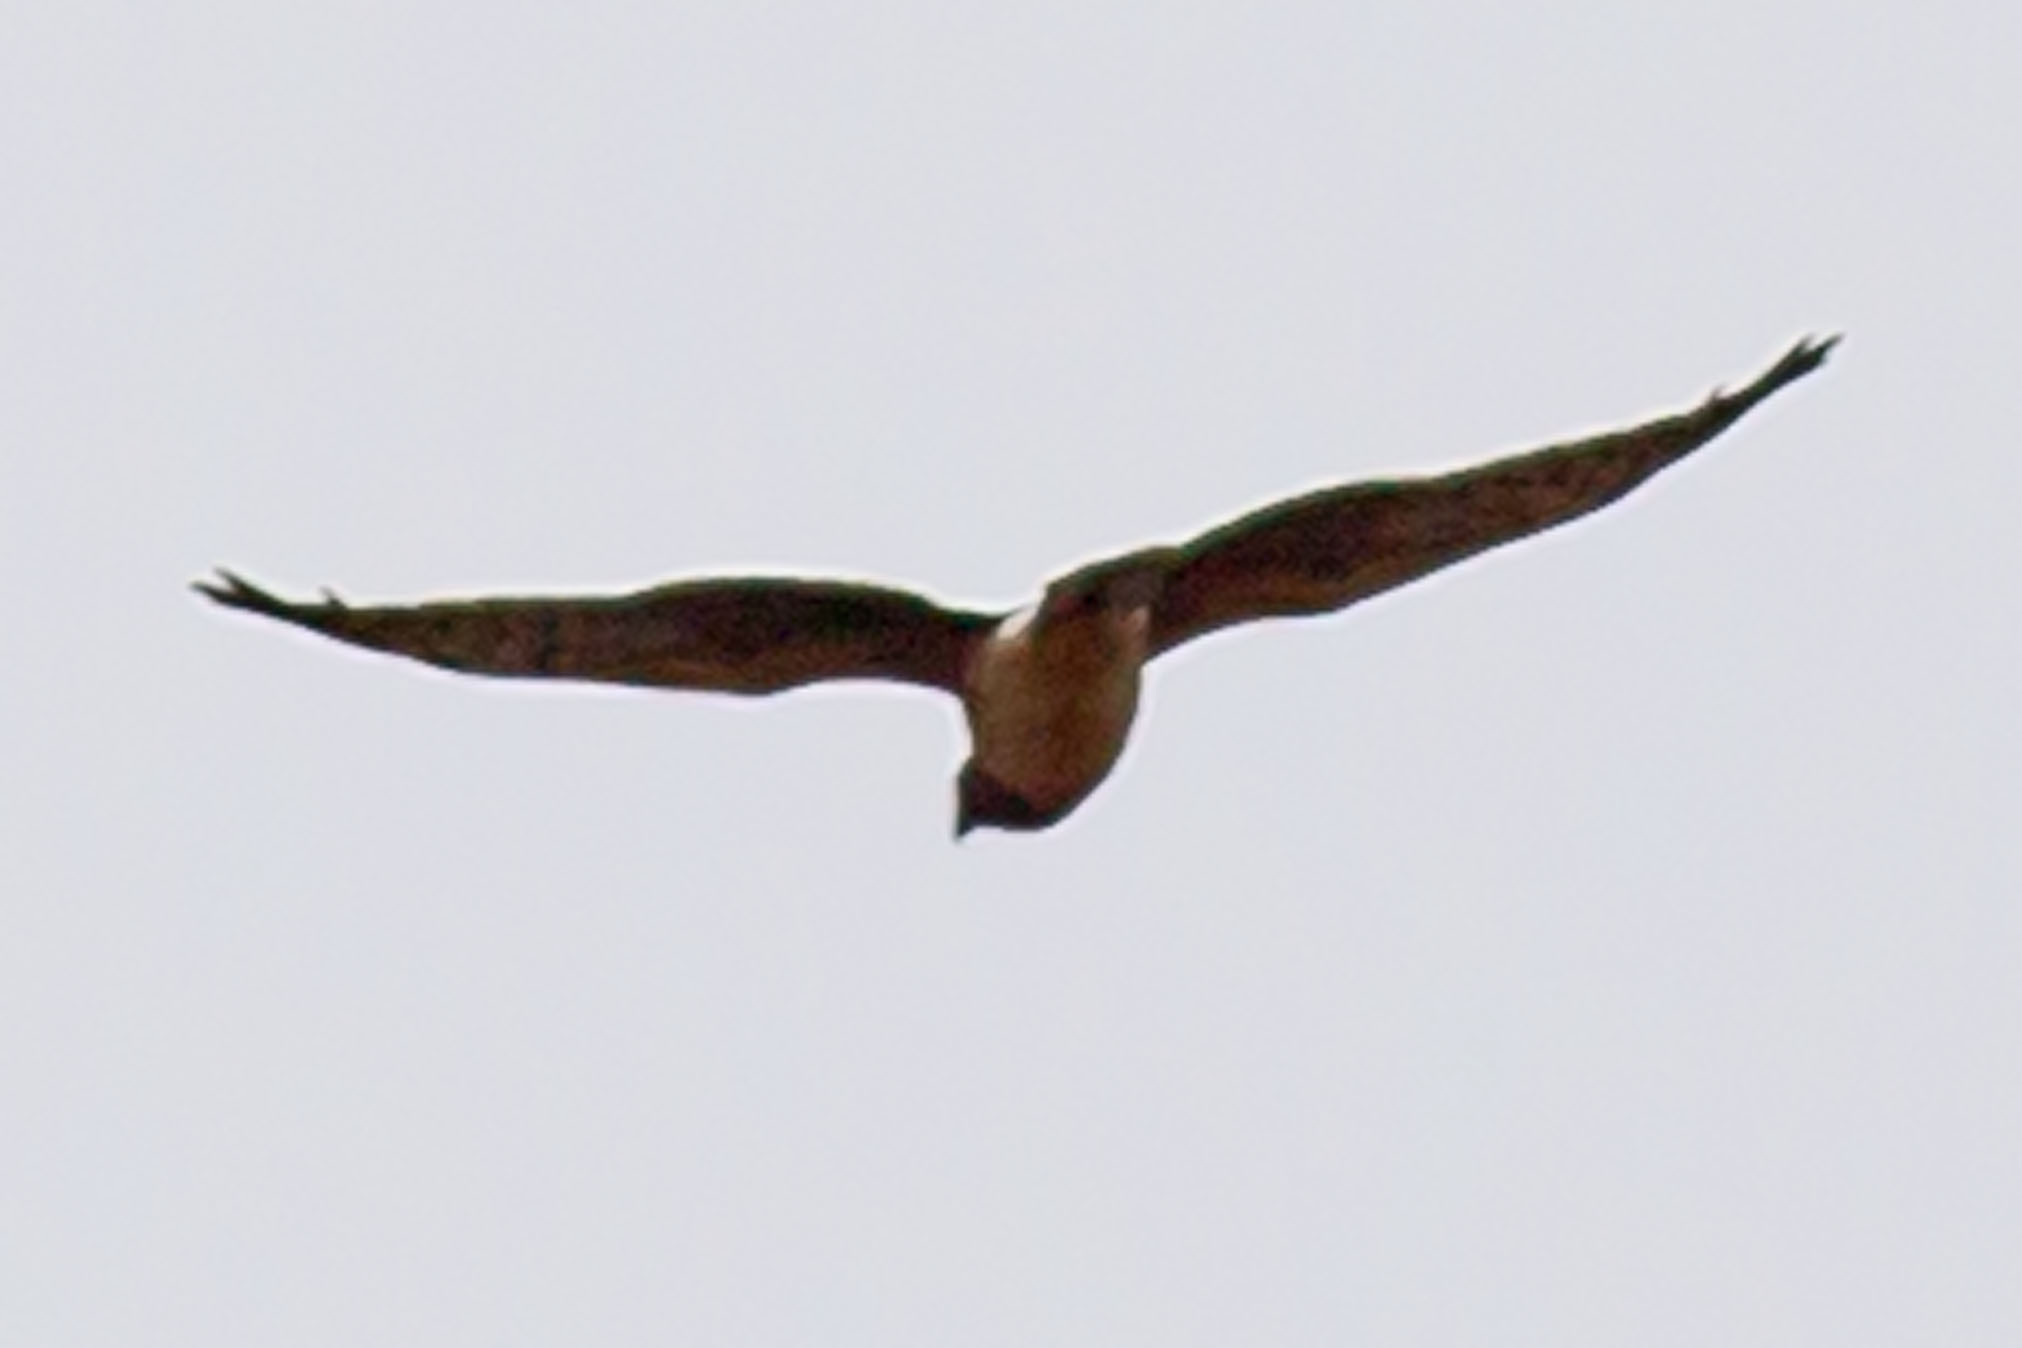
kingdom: Animalia
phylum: Chordata
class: Aves
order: Accipitriformes
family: Accipitridae
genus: Circus
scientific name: Circus cyaneus
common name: Hen harrier
